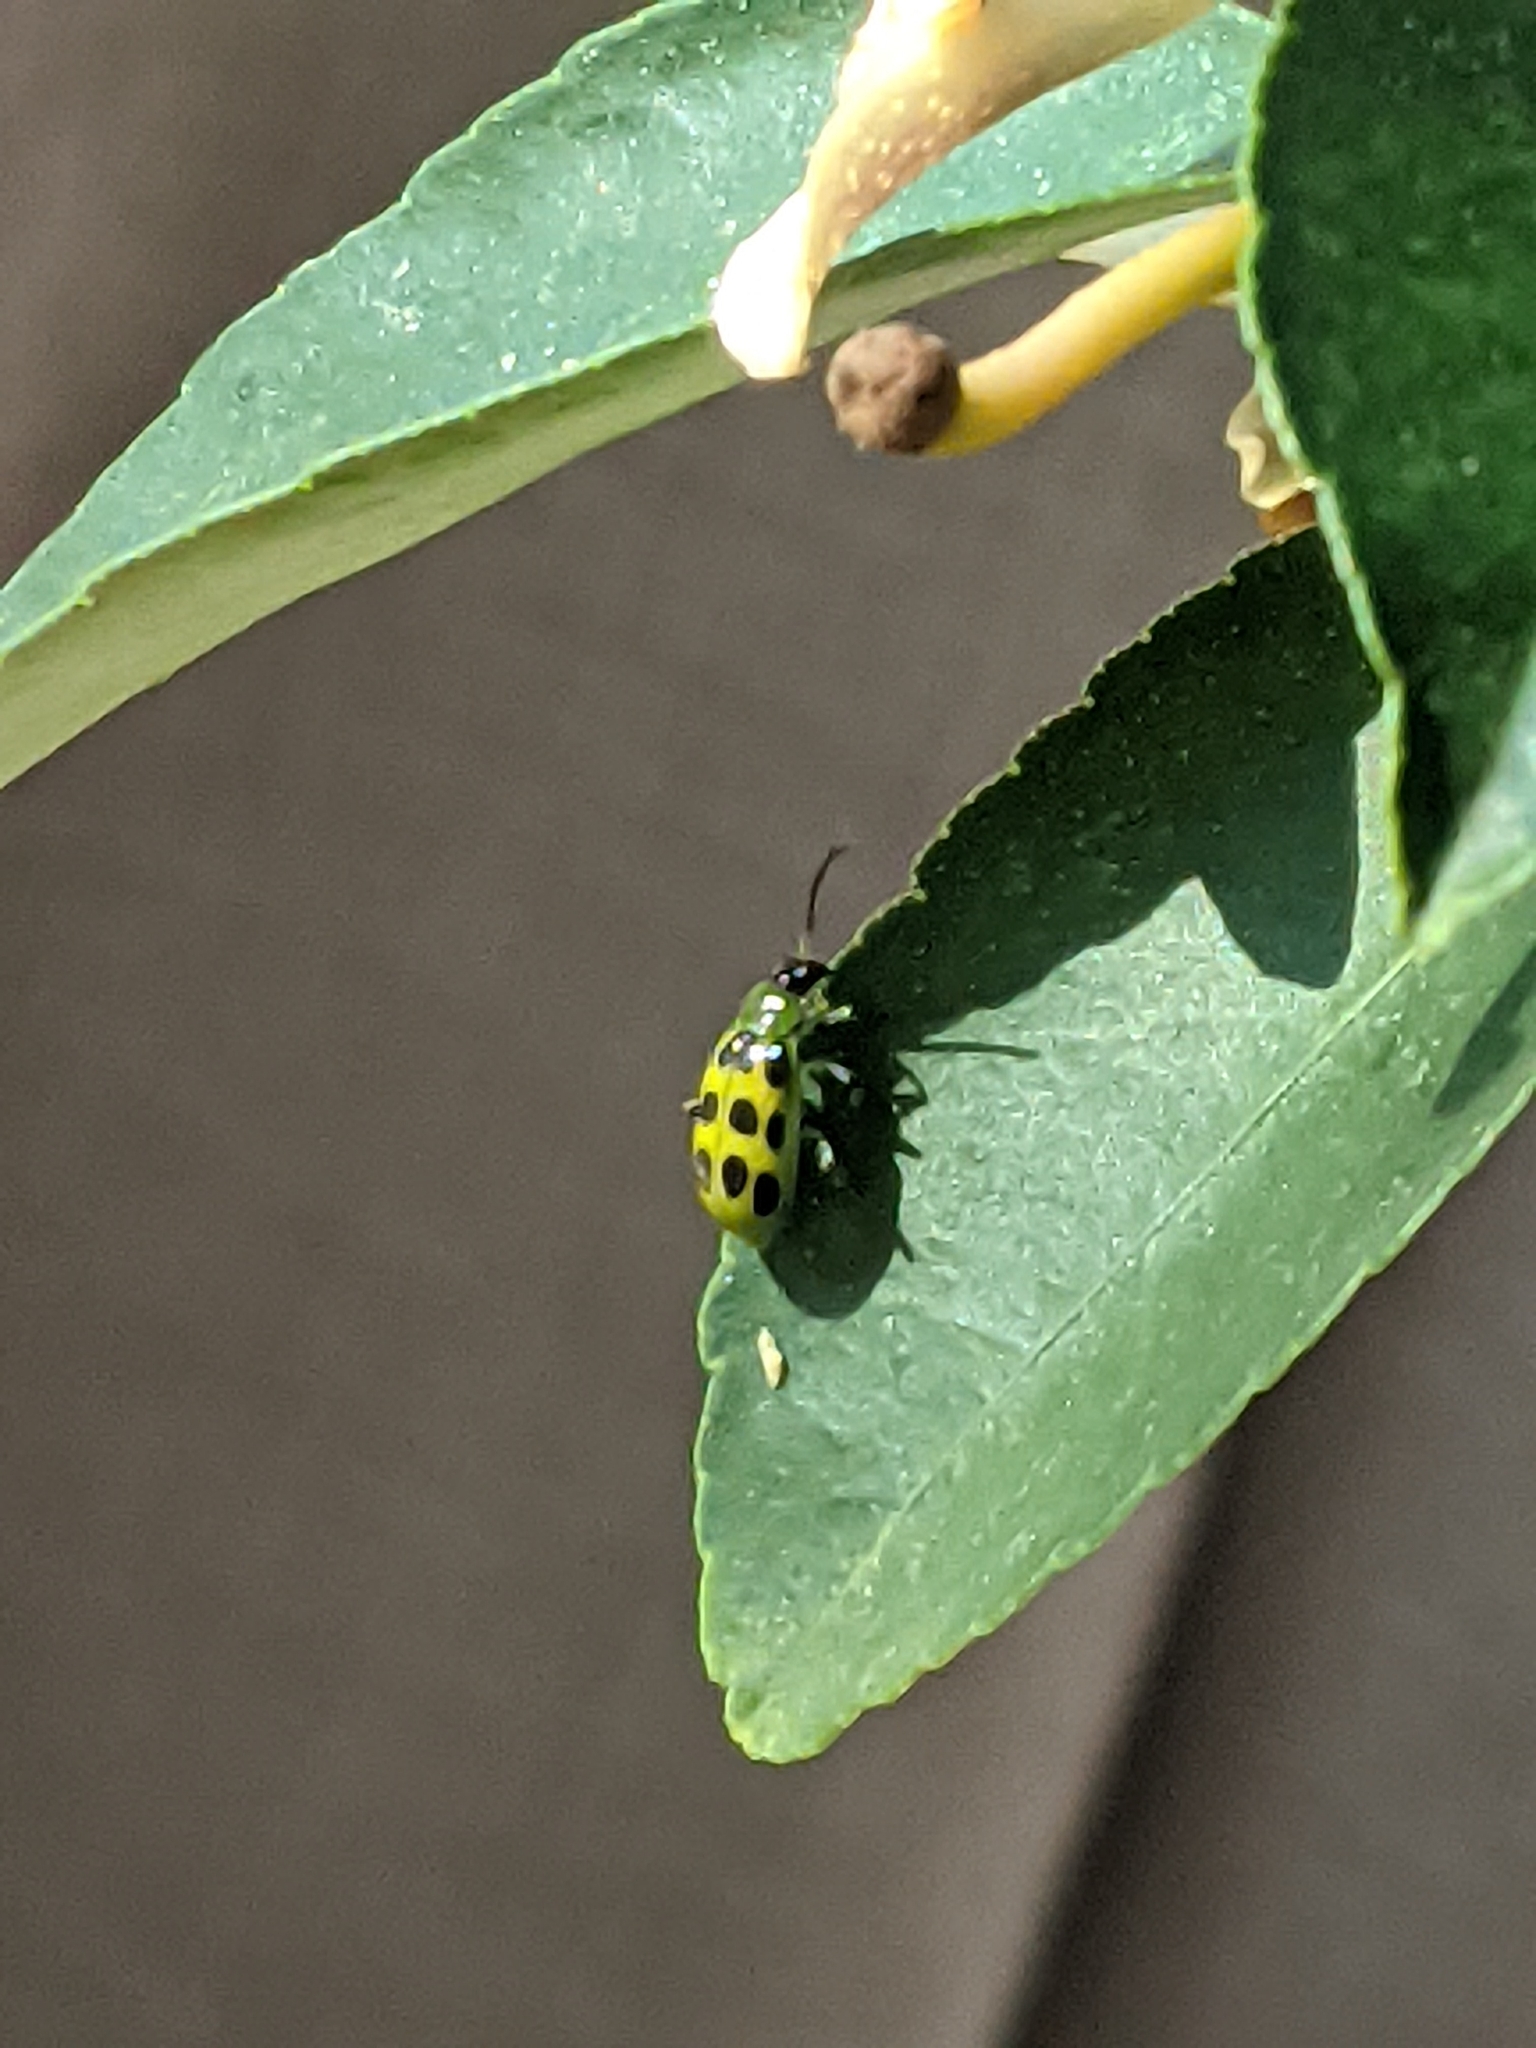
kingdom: Animalia
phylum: Arthropoda
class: Insecta
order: Coleoptera
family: Chrysomelidae
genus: Diabrotica
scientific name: Diabrotica undecimpunctata
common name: Spotted cucumber beetle
